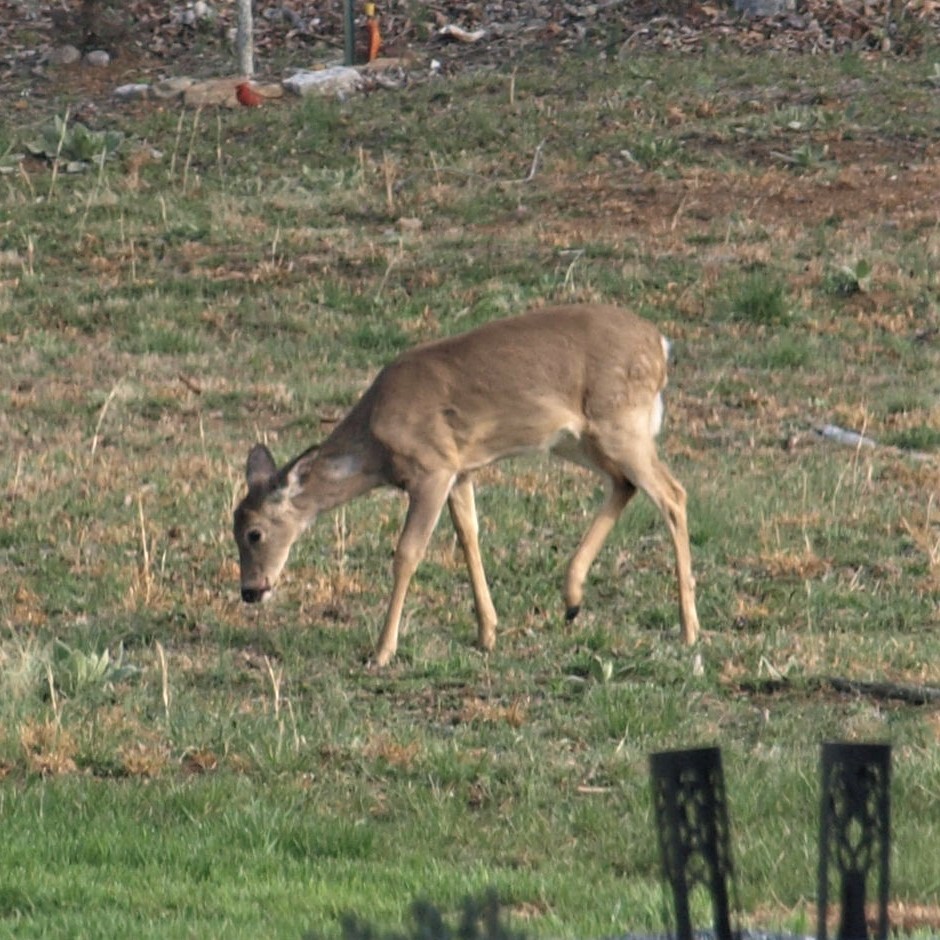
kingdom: Animalia
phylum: Chordata
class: Mammalia
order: Artiodactyla
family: Cervidae
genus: Odocoileus
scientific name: Odocoileus virginianus
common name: White-tailed deer
